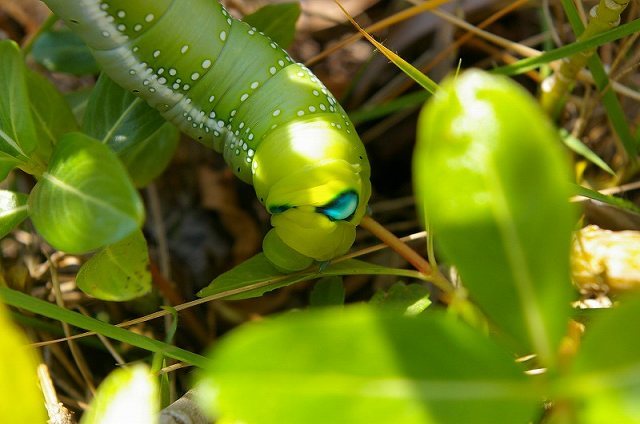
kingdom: Animalia
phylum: Arthropoda
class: Insecta
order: Lepidoptera
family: Sphingidae
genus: Daphnis
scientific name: Daphnis nerii
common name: Oleander hawk-moth
